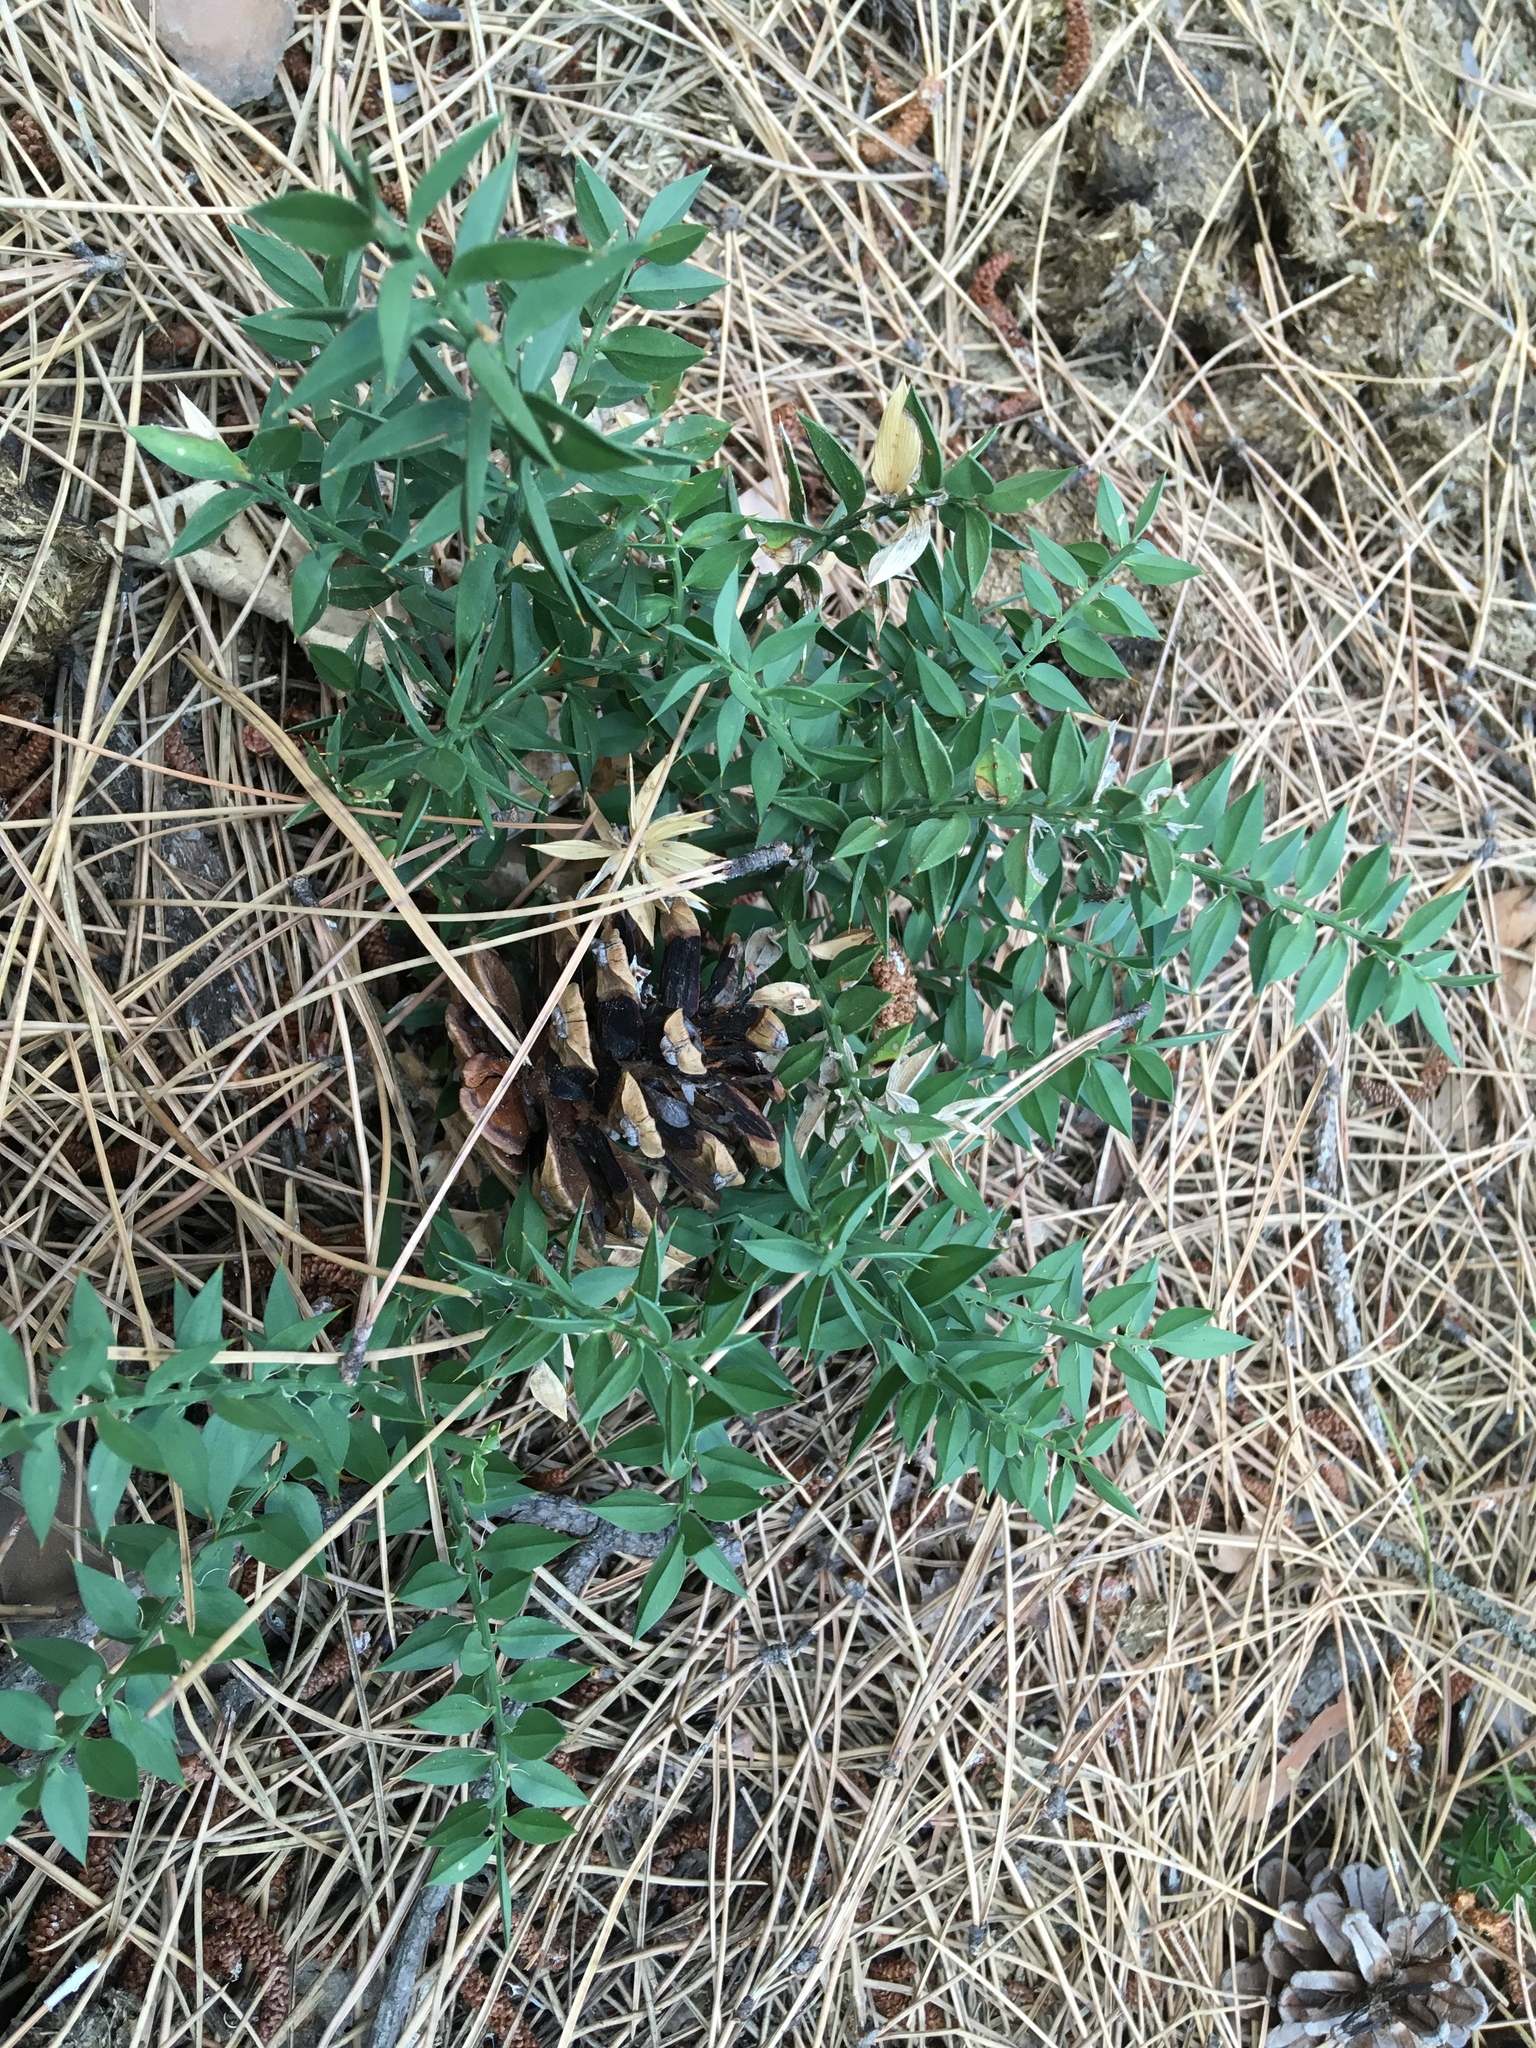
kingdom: Plantae
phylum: Tracheophyta
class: Liliopsida
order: Asparagales
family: Asparagaceae
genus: Ruscus
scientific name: Ruscus aculeatus
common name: Butcher's-broom
